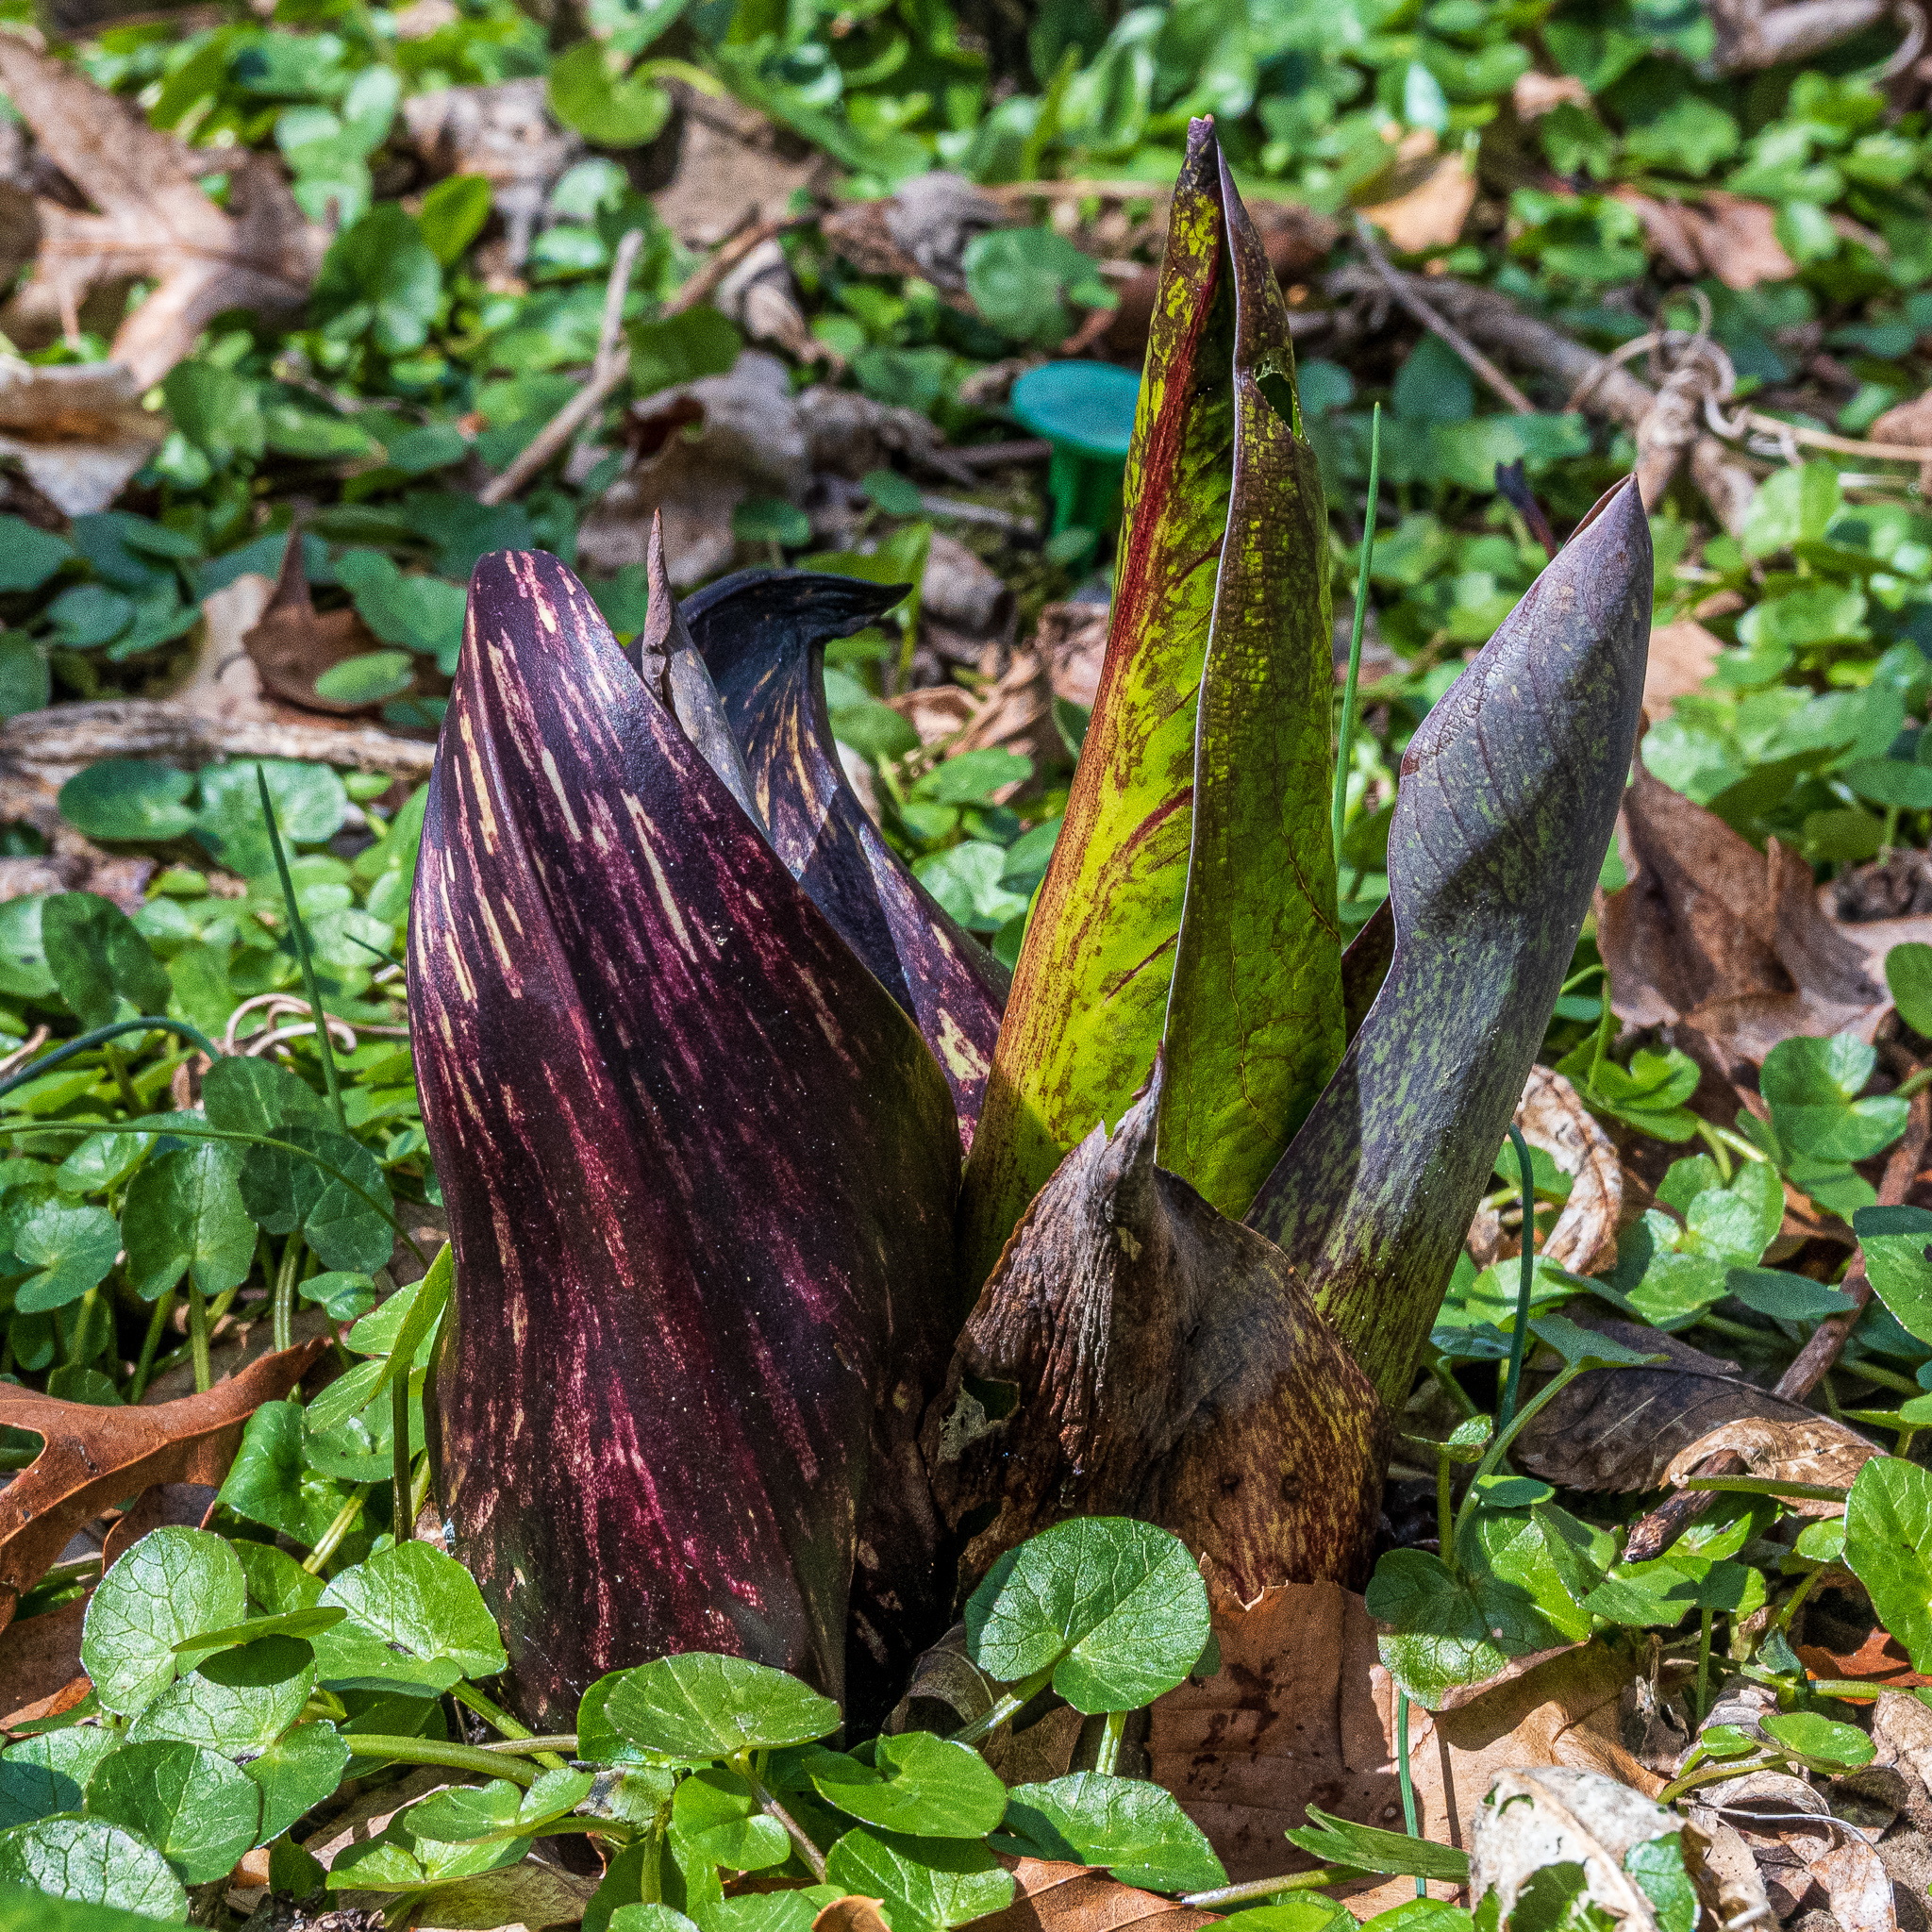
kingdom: Plantae
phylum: Tracheophyta
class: Liliopsida
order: Alismatales
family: Araceae
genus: Symplocarpus
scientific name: Symplocarpus foetidus
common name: Eastern skunk cabbage
